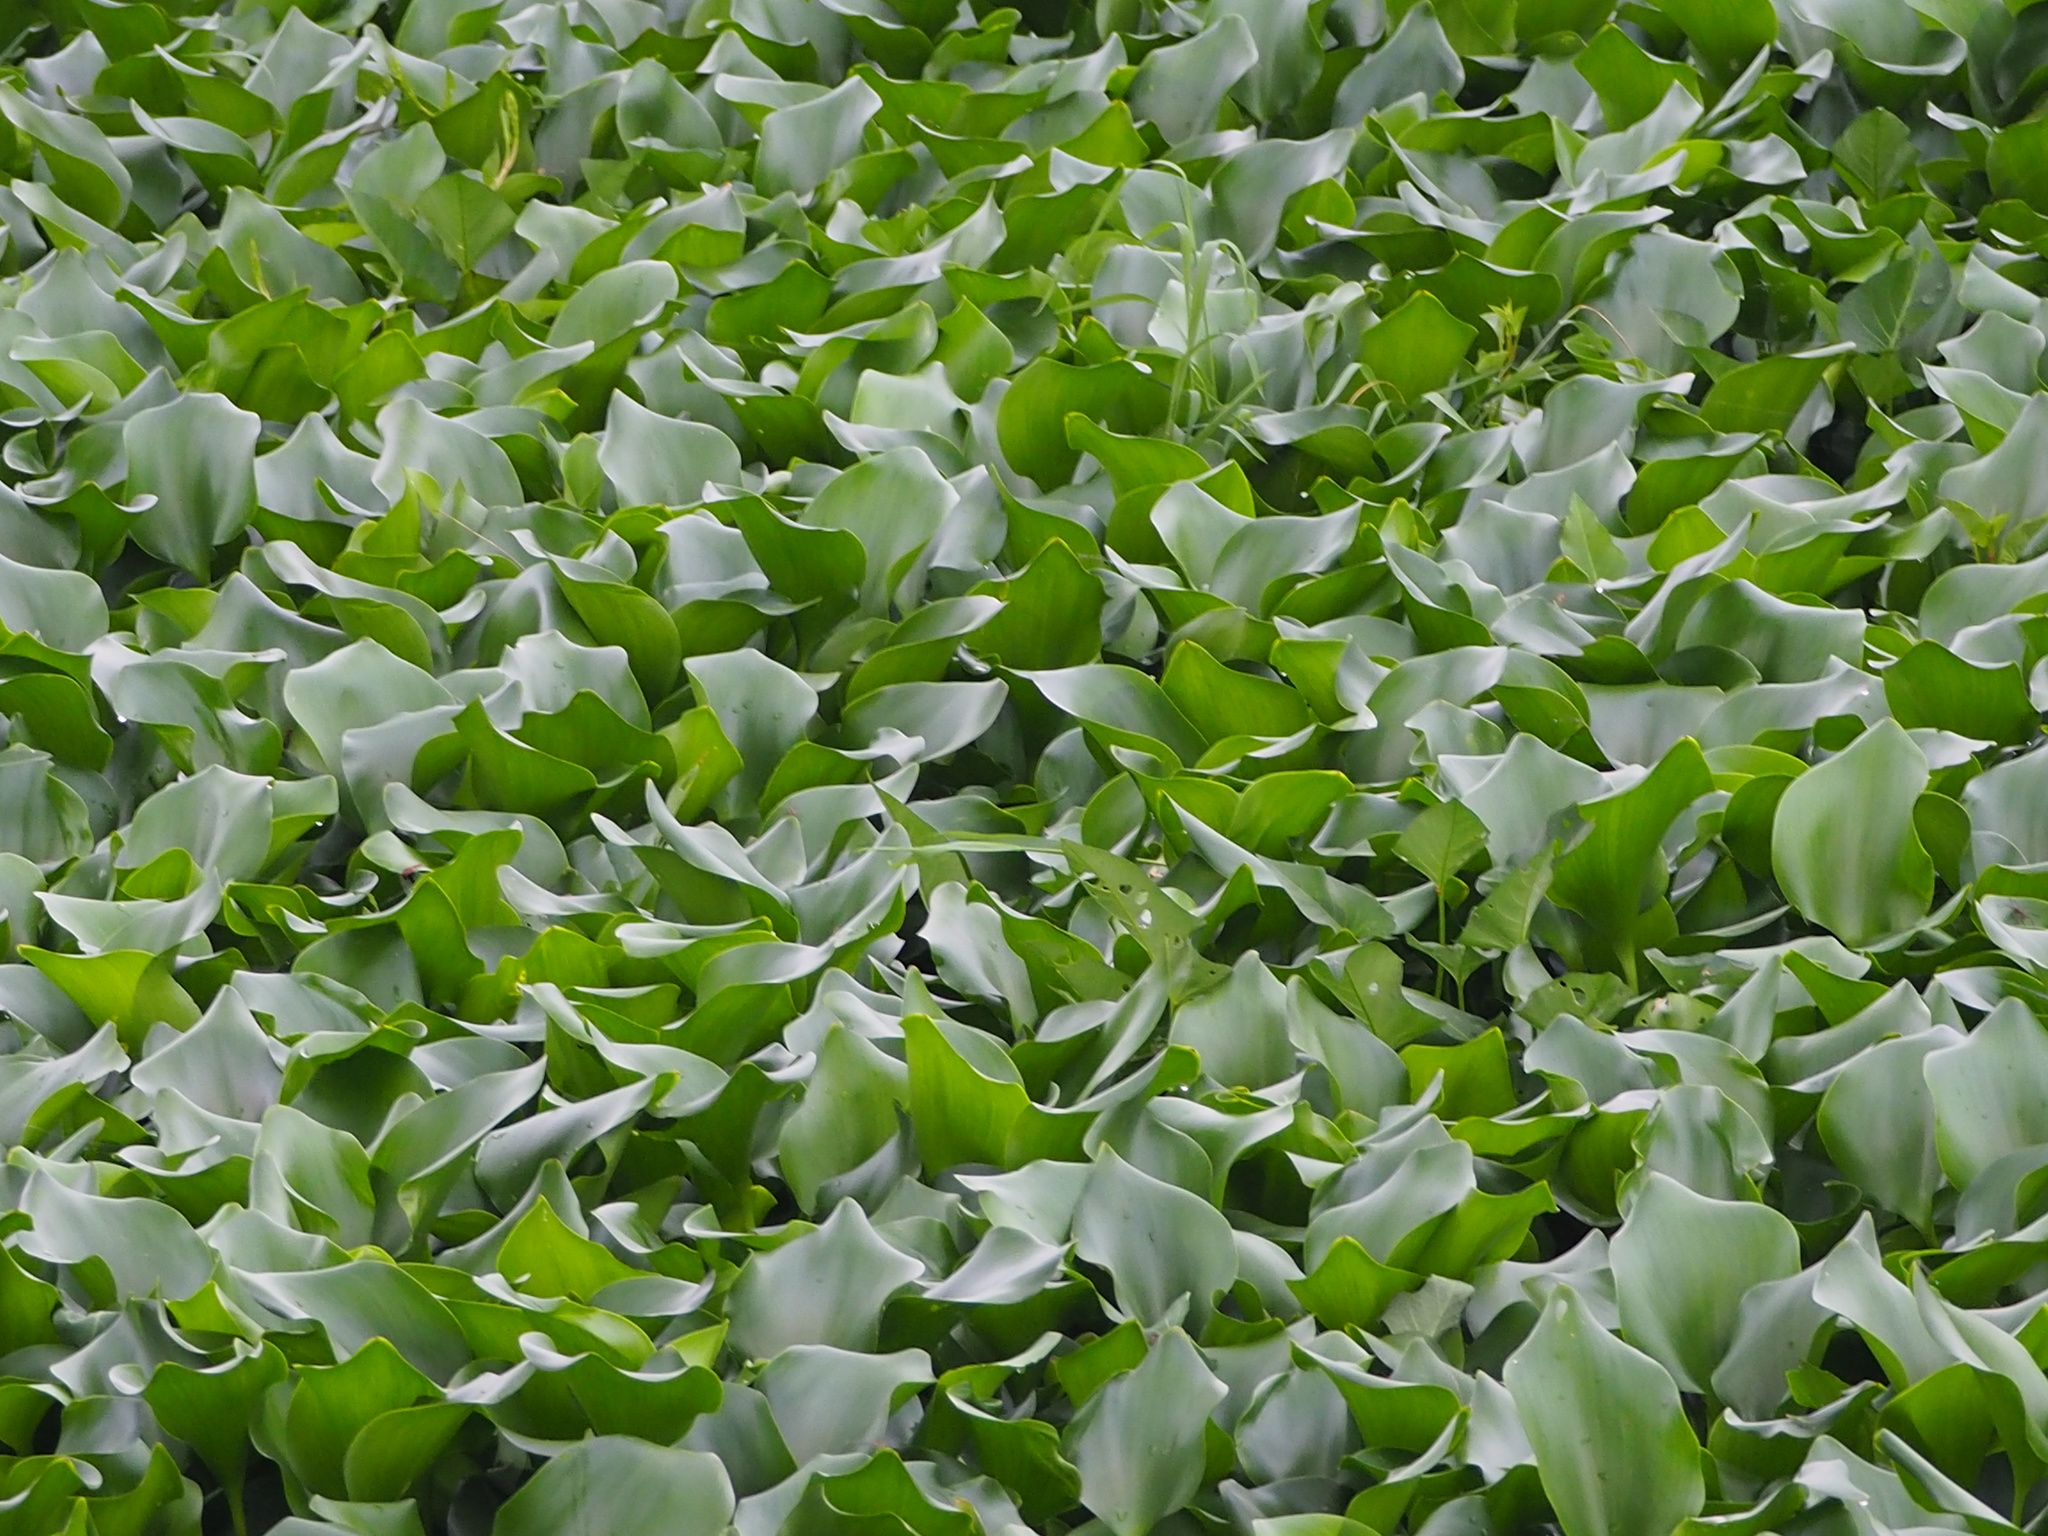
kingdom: Plantae
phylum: Tracheophyta
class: Liliopsida
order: Commelinales
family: Pontederiaceae
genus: Pontederia
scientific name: Pontederia crassipes
